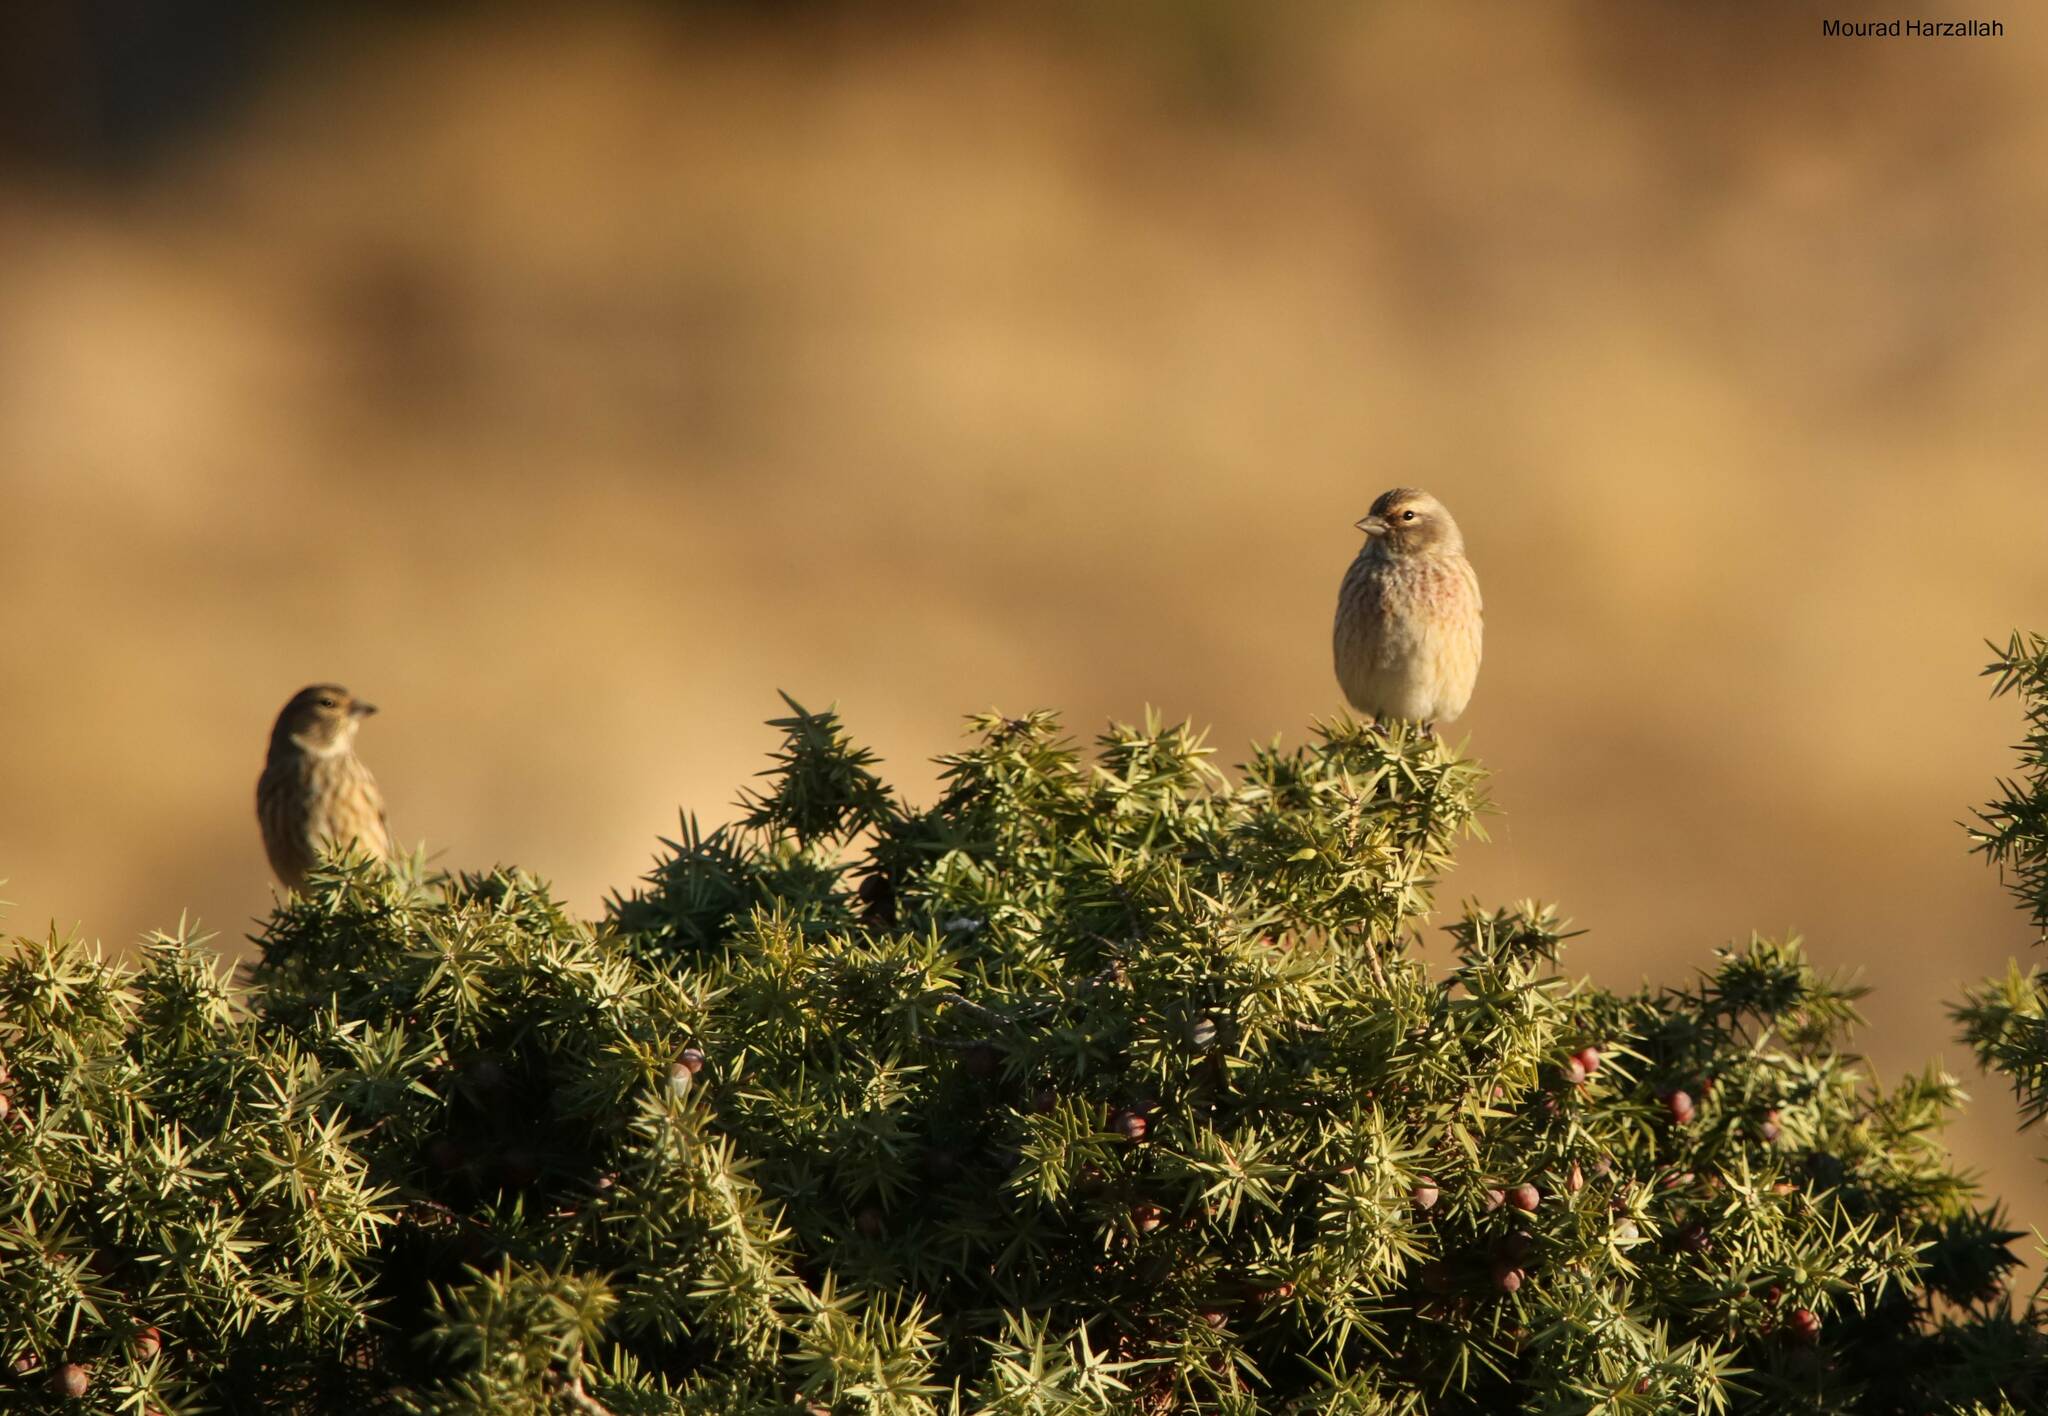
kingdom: Animalia
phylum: Chordata
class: Aves
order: Passeriformes
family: Fringillidae
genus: Linaria
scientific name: Linaria cannabina
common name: Common linnet
